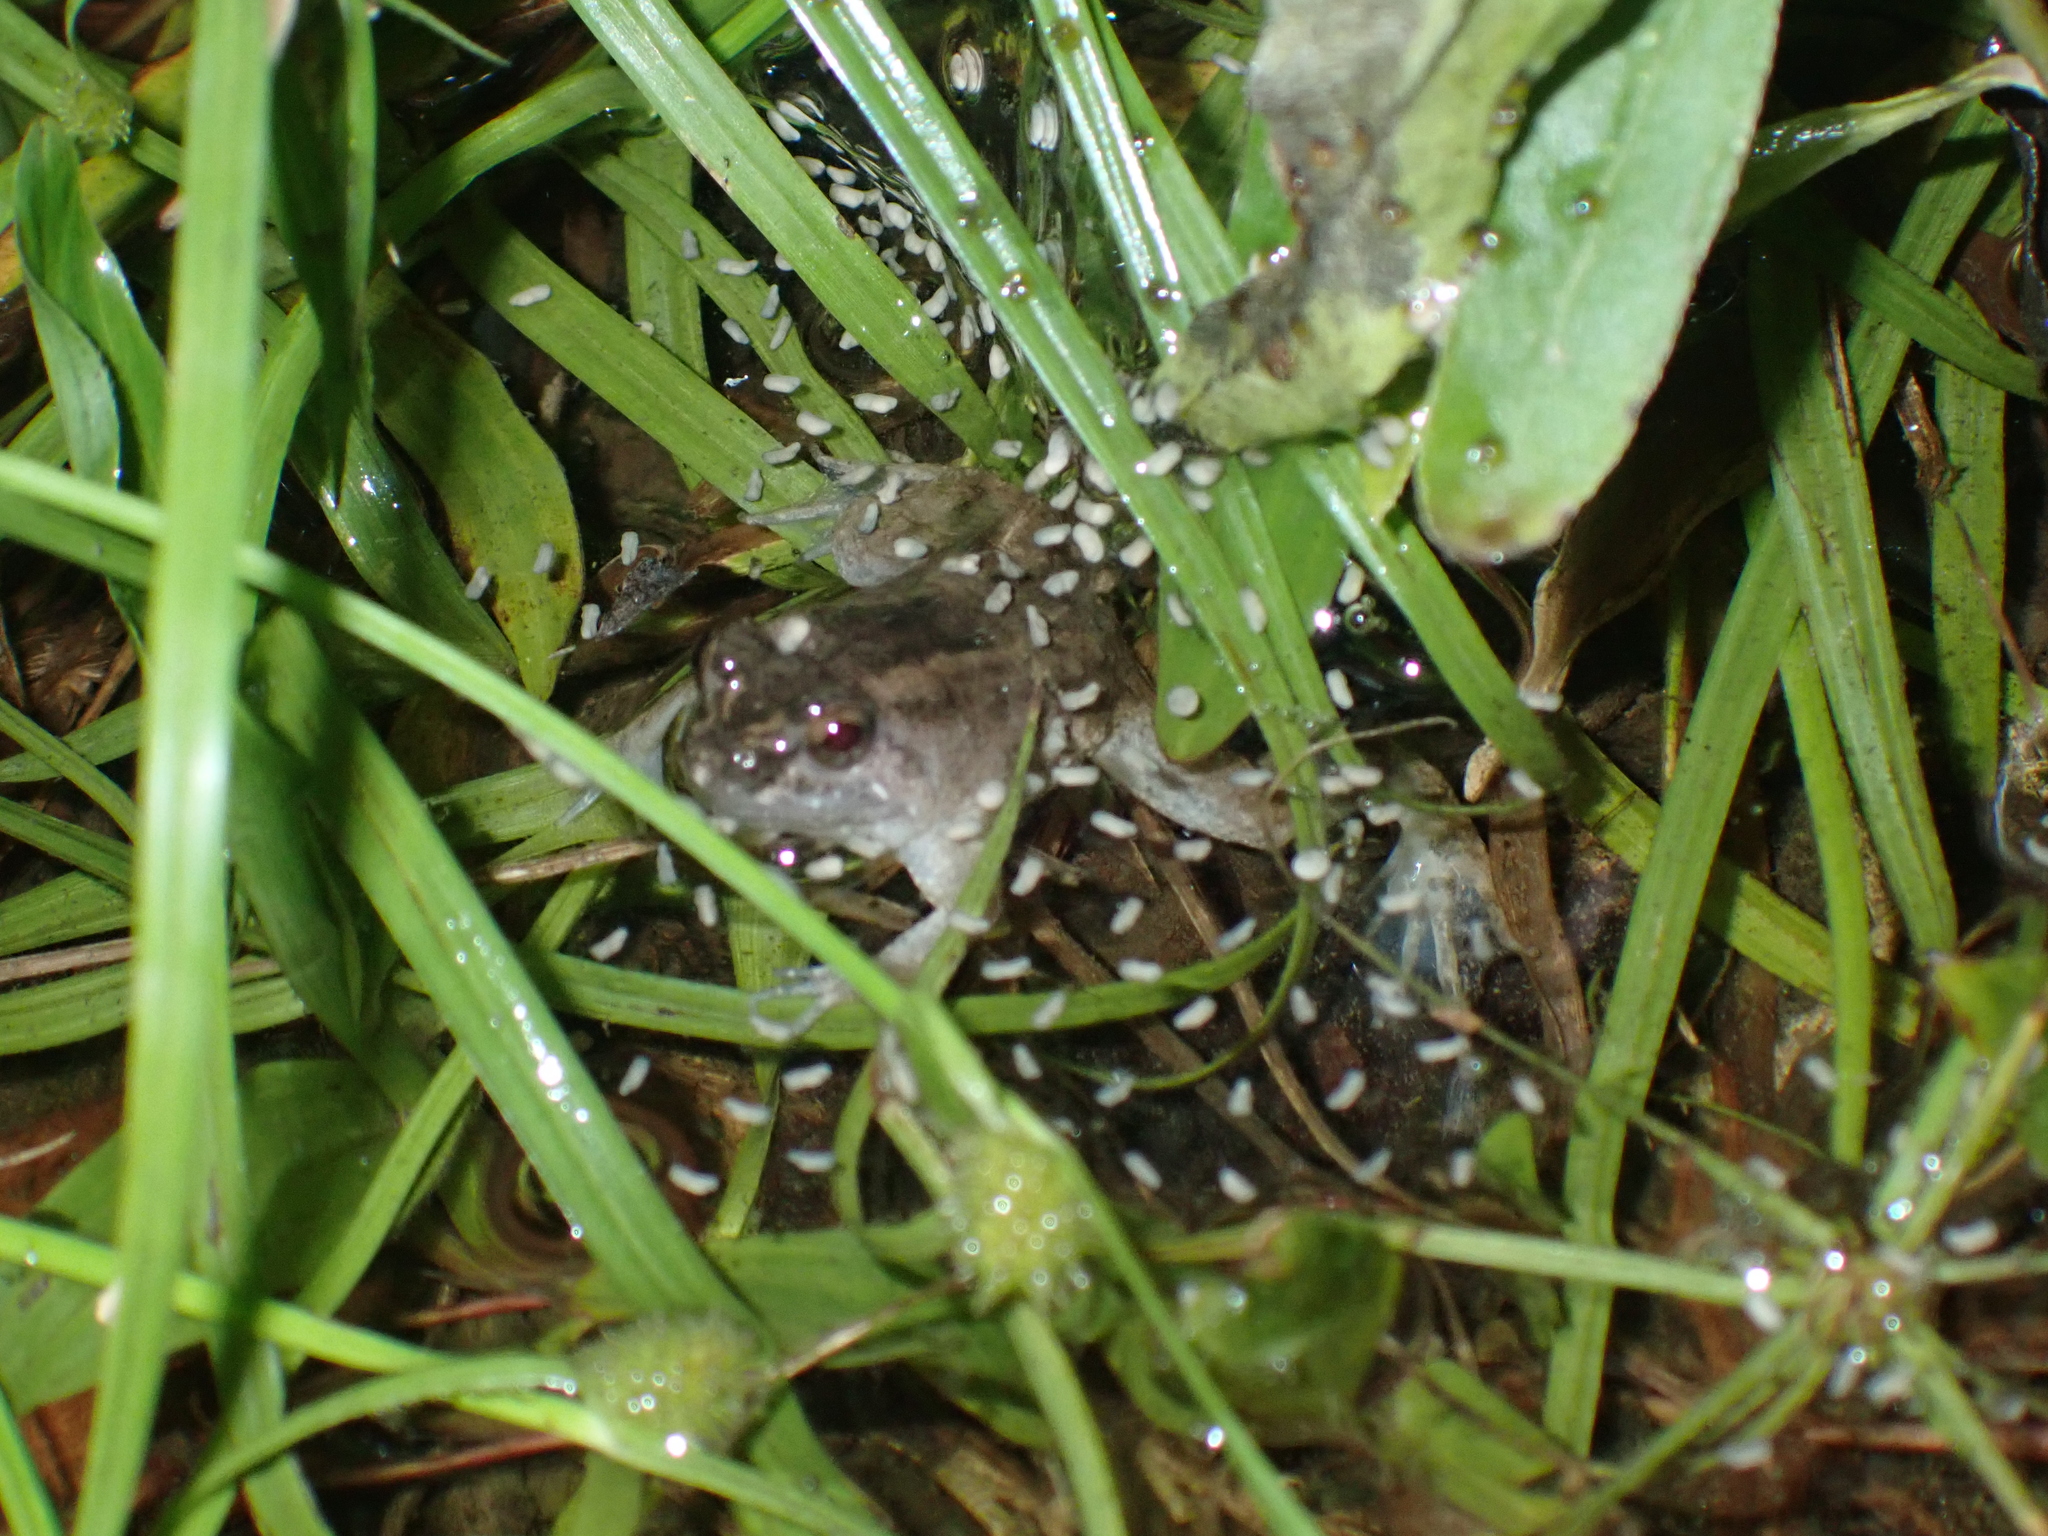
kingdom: Animalia
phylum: Chordata
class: Amphibia
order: Anura
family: Dicroglossidae
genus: Occidozyga
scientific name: Occidozyga martensii
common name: Marten’s oriental frog/round-tongued floating frog
